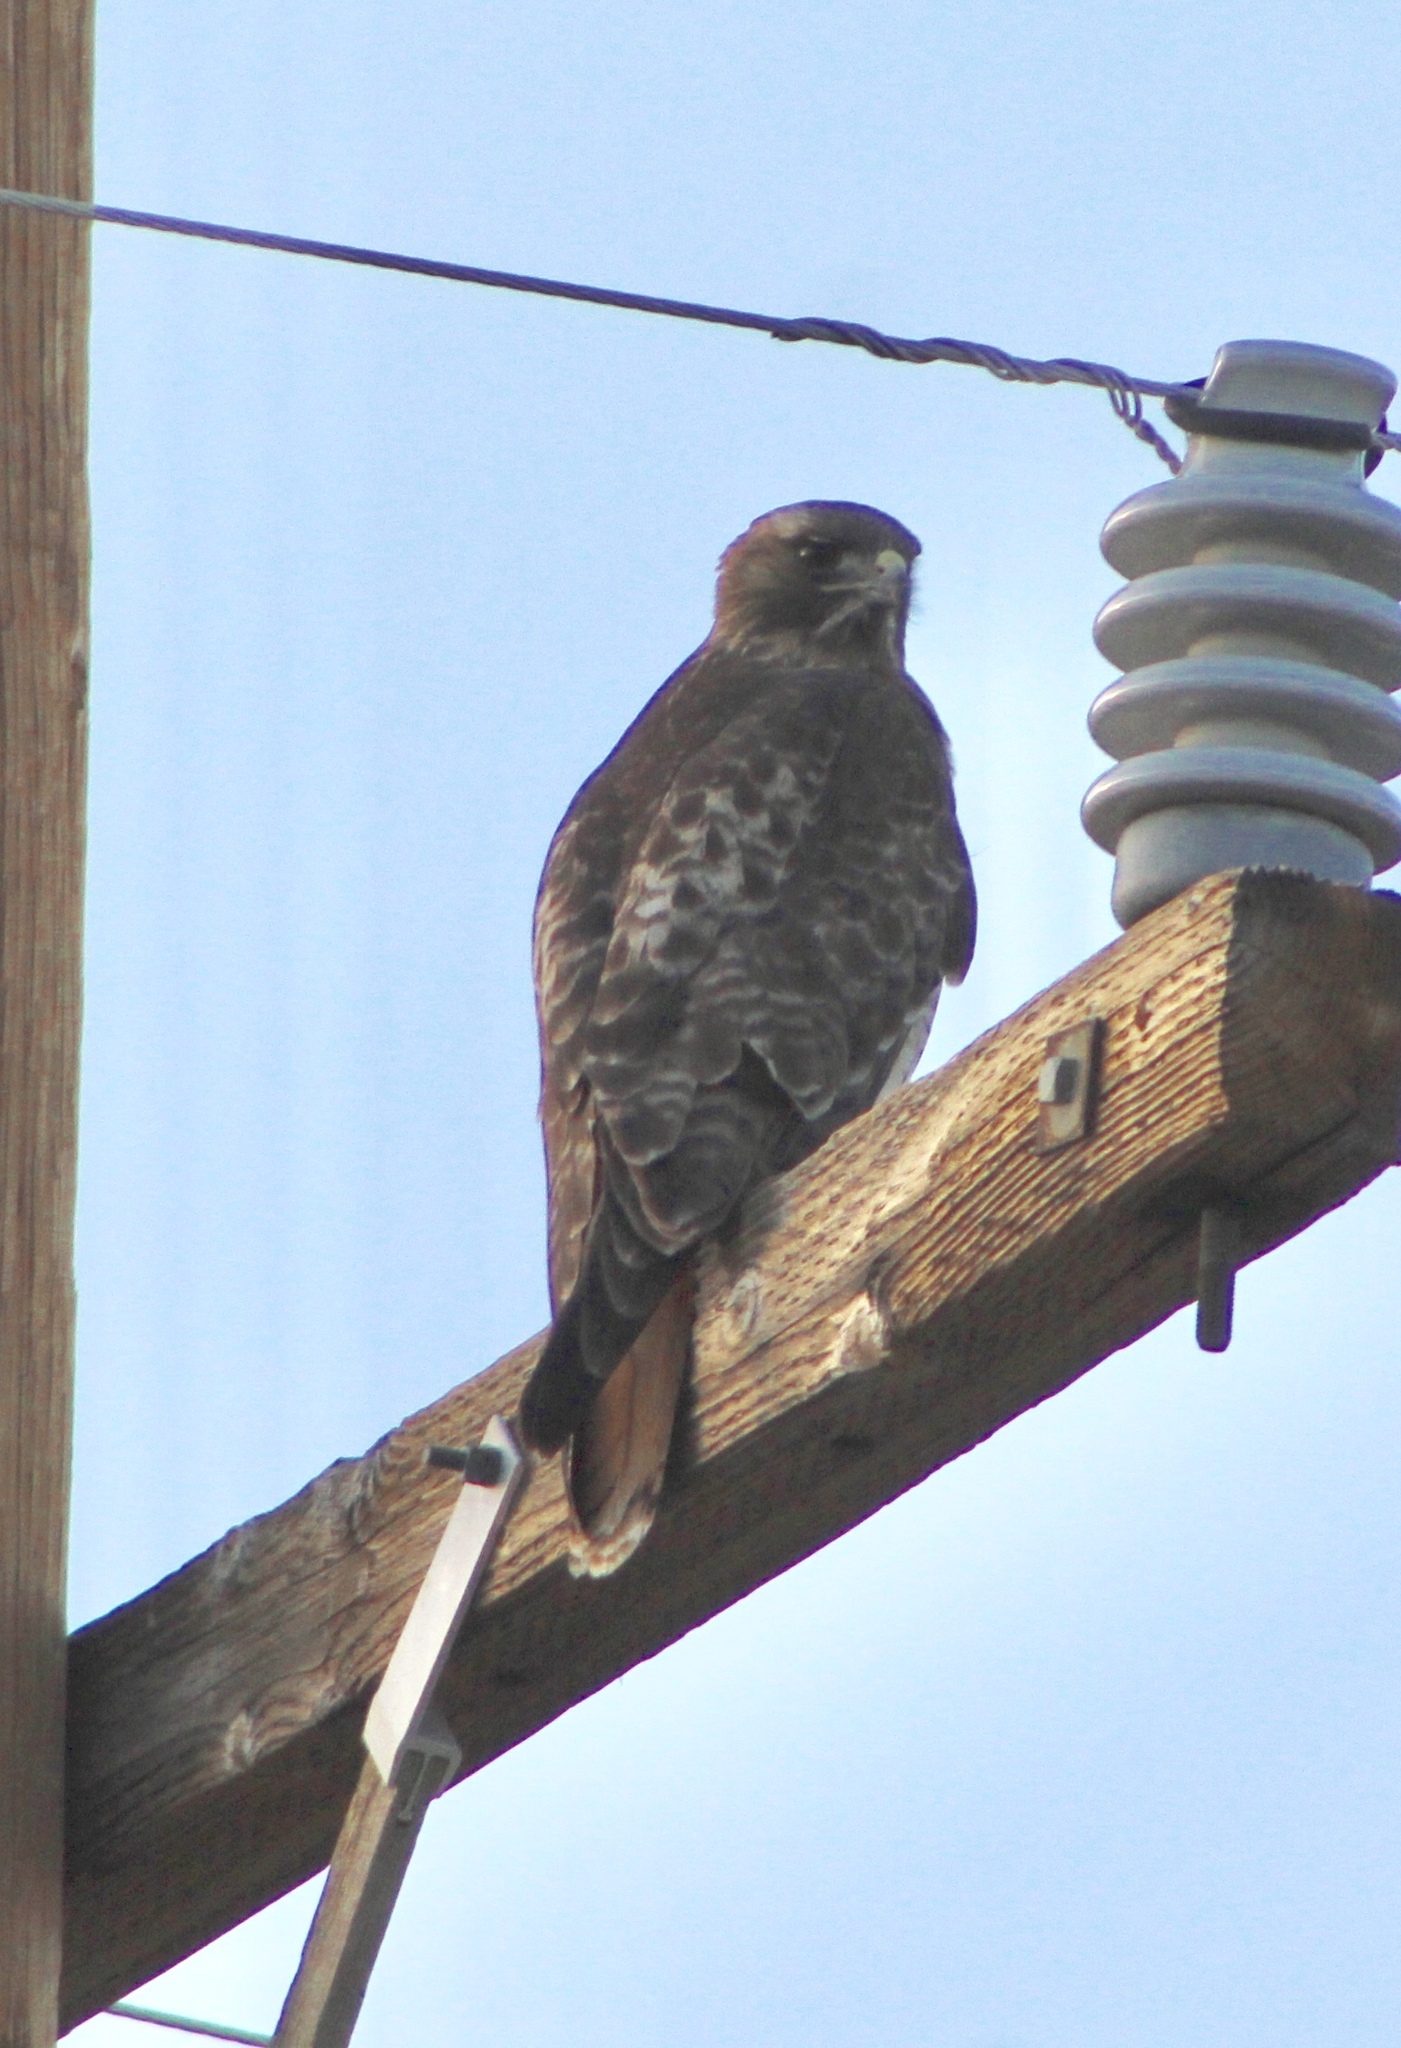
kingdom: Animalia
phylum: Chordata
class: Aves
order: Accipitriformes
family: Accipitridae
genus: Buteo
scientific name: Buteo jamaicensis
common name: Red-tailed hawk
